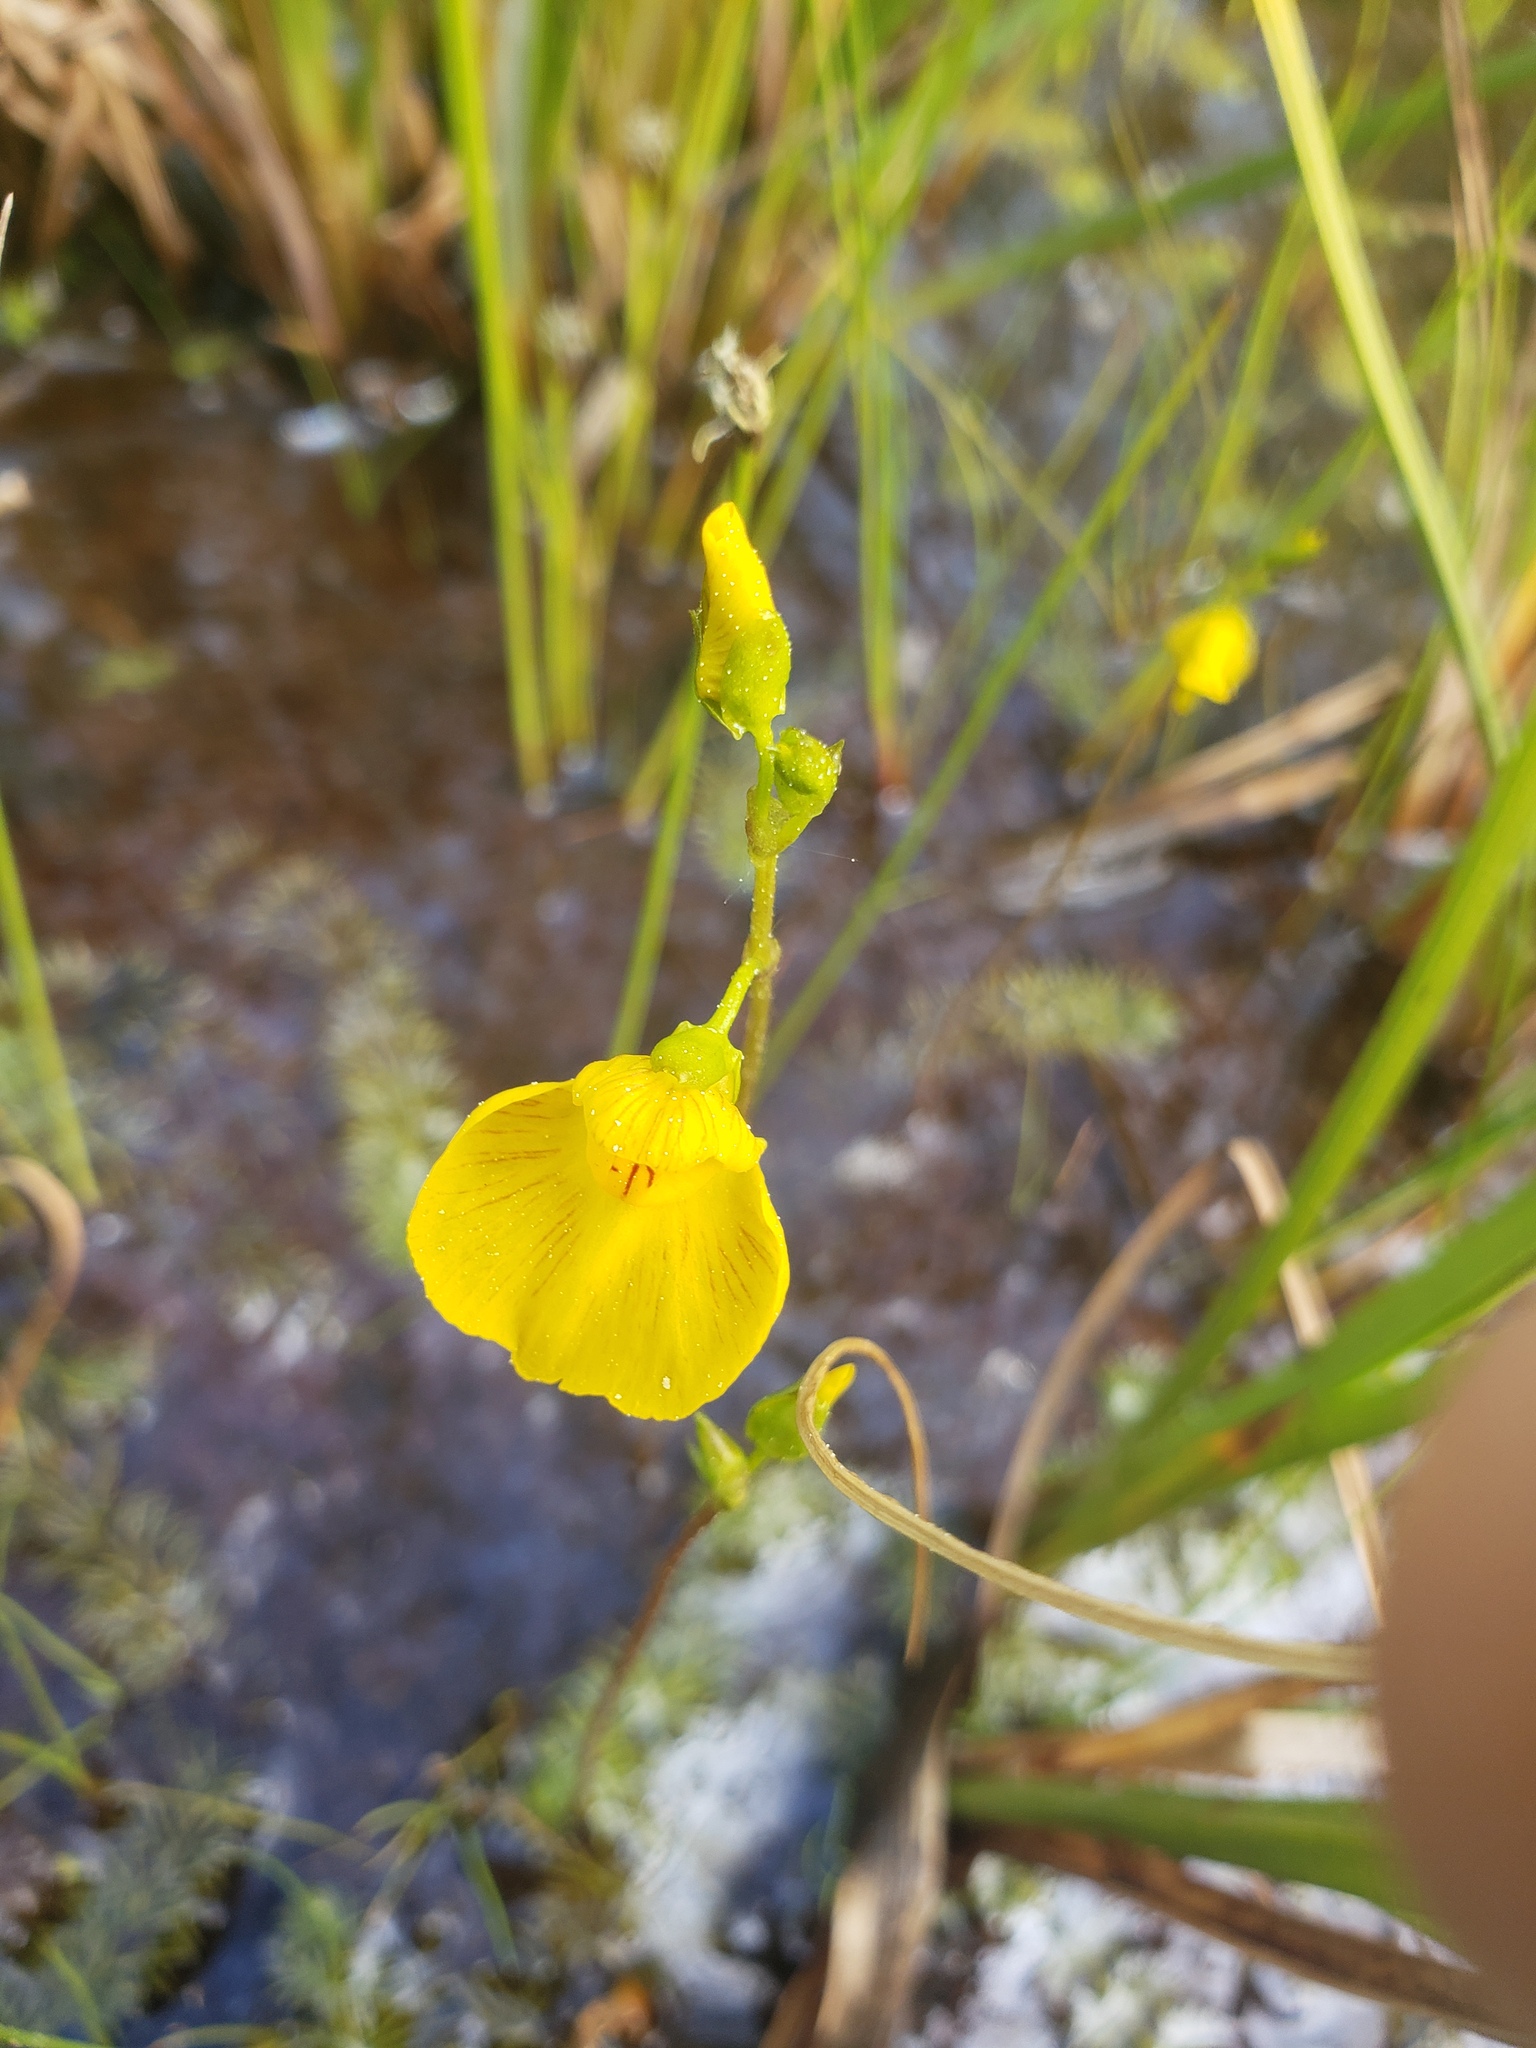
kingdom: Plantae
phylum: Tracheophyta
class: Magnoliopsida
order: Lamiales
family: Lentibulariaceae
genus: Utricularia
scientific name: Utricularia intermedia
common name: Intermediate bladderwort
